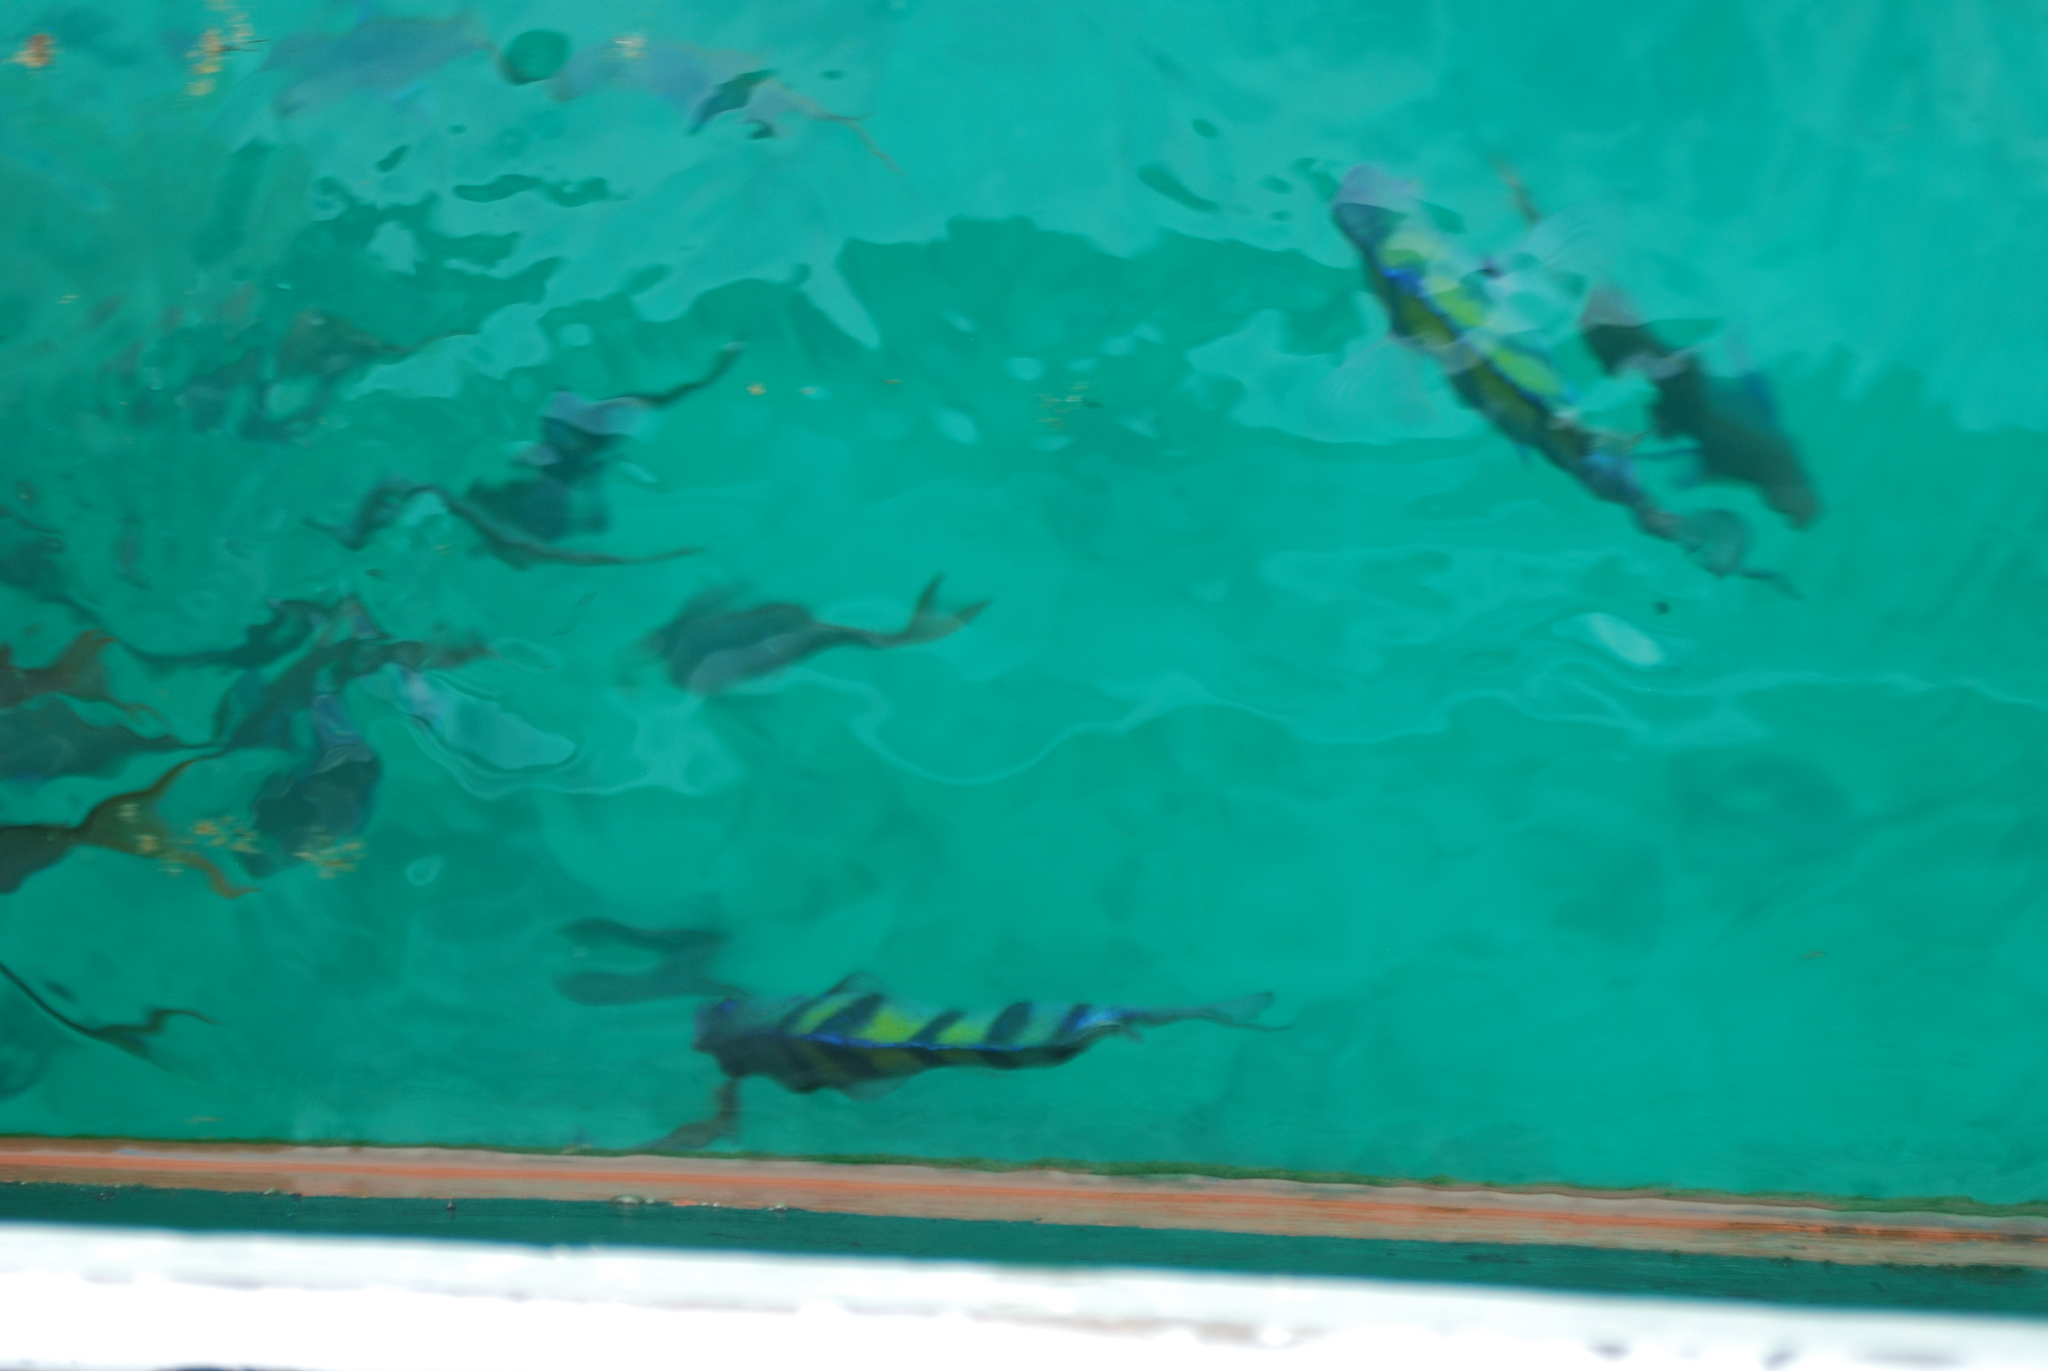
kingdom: Animalia
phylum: Chordata
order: Perciformes
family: Pomacentridae
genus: Abudefduf
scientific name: Abudefduf troschelii
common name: Panamic sergeant major
